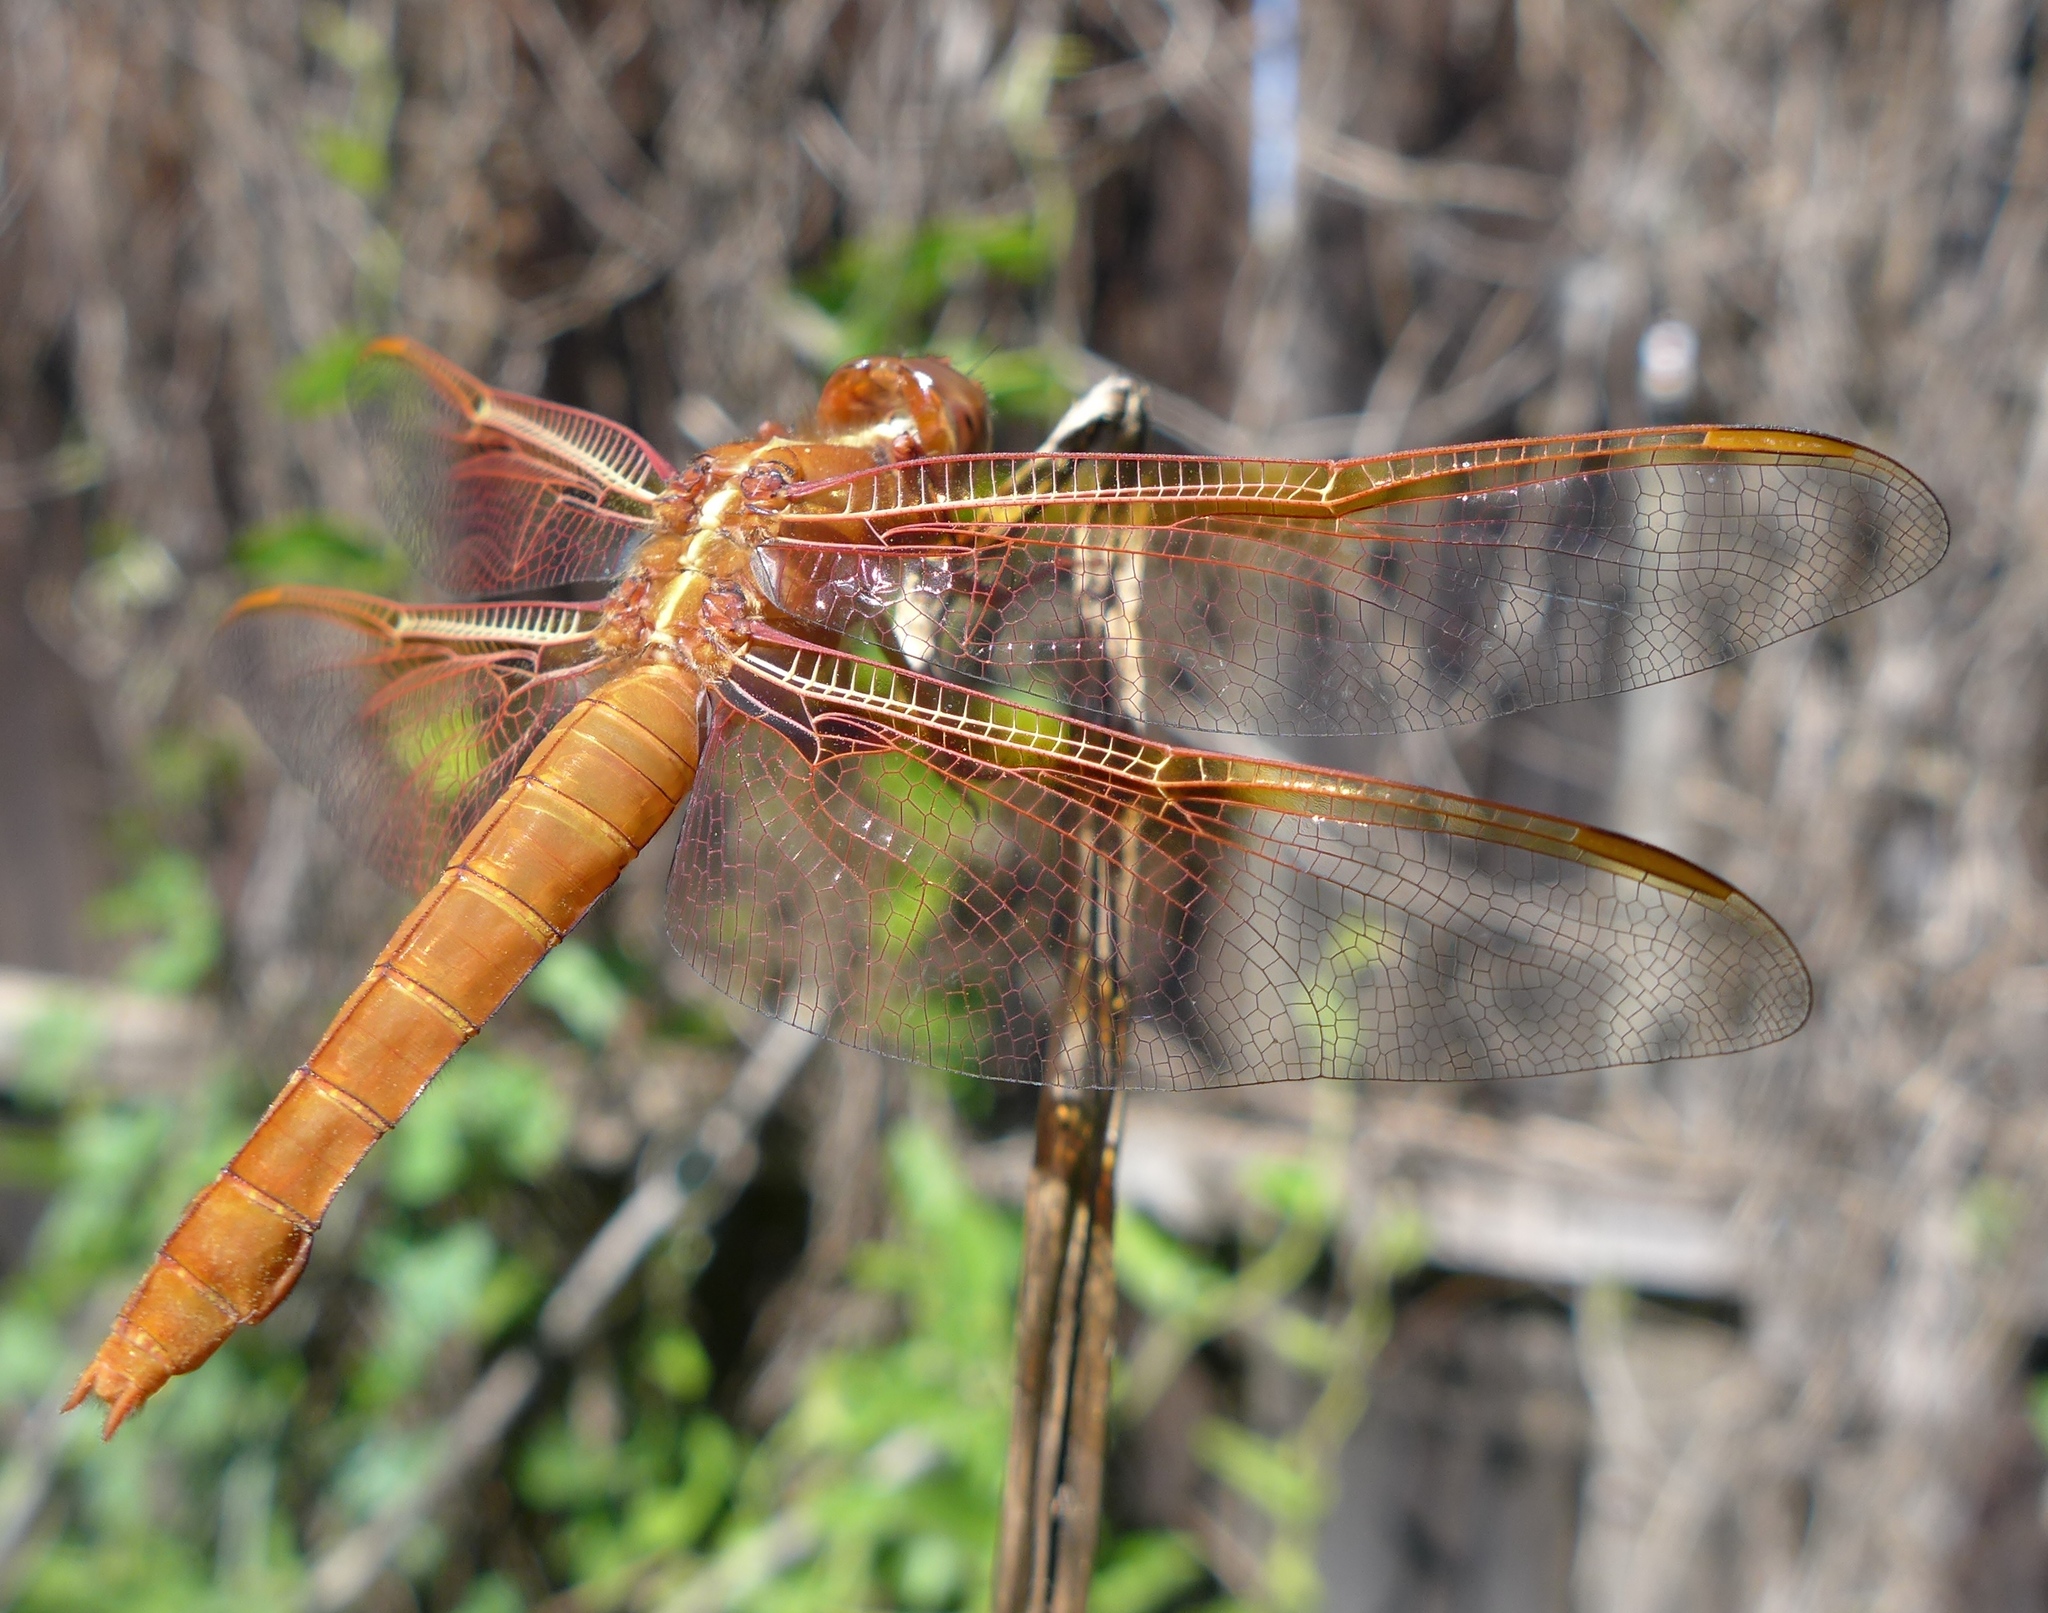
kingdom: Animalia
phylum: Arthropoda
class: Insecta
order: Odonata
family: Libellulidae
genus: Libellula
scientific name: Libellula saturata
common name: Flame skimmer
